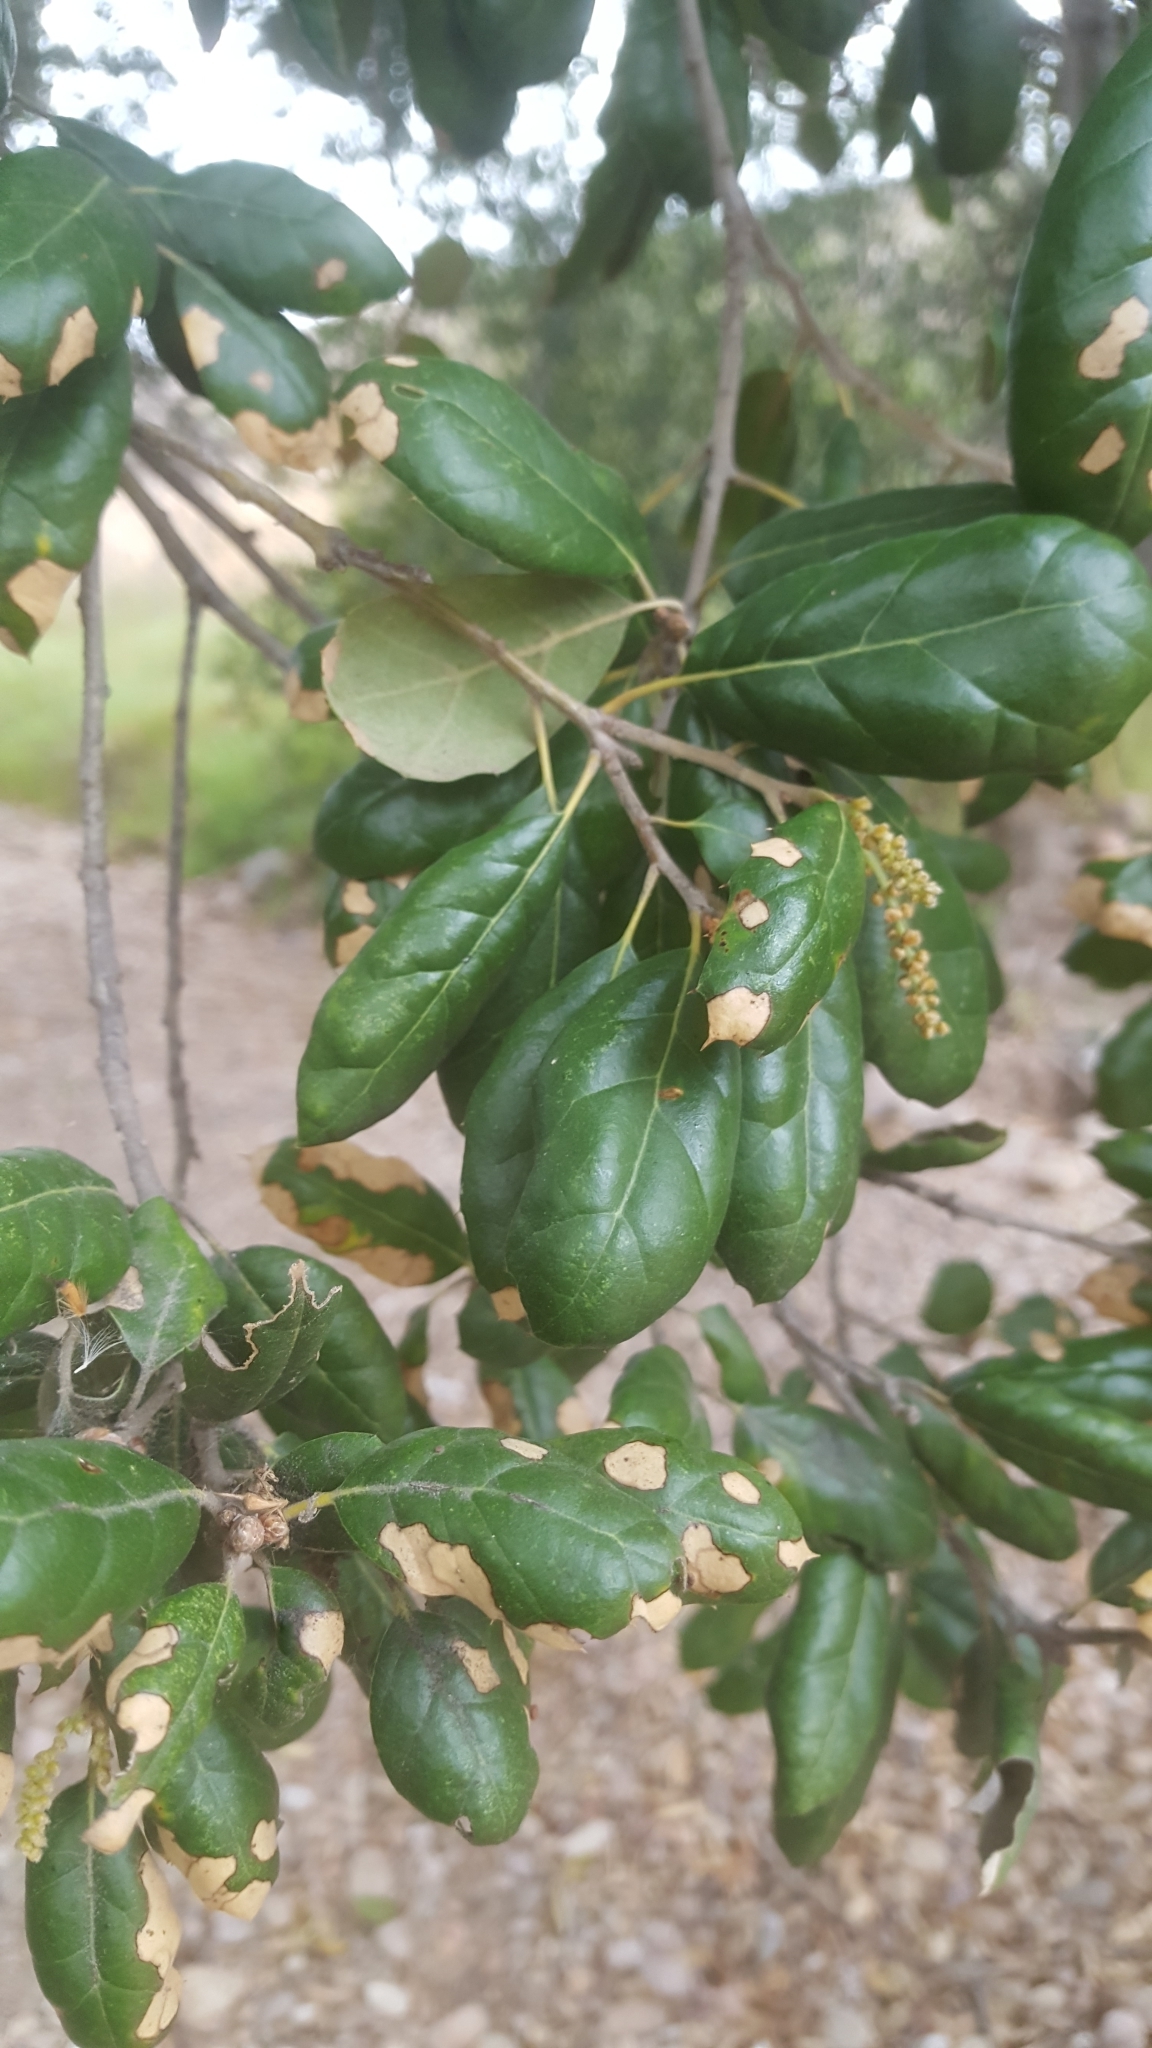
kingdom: Plantae
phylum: Tracheophyta
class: Magnoliopsida
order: Fagales
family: Fagaceae
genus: Quercus
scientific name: Quercus agrifolia
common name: California live oak
